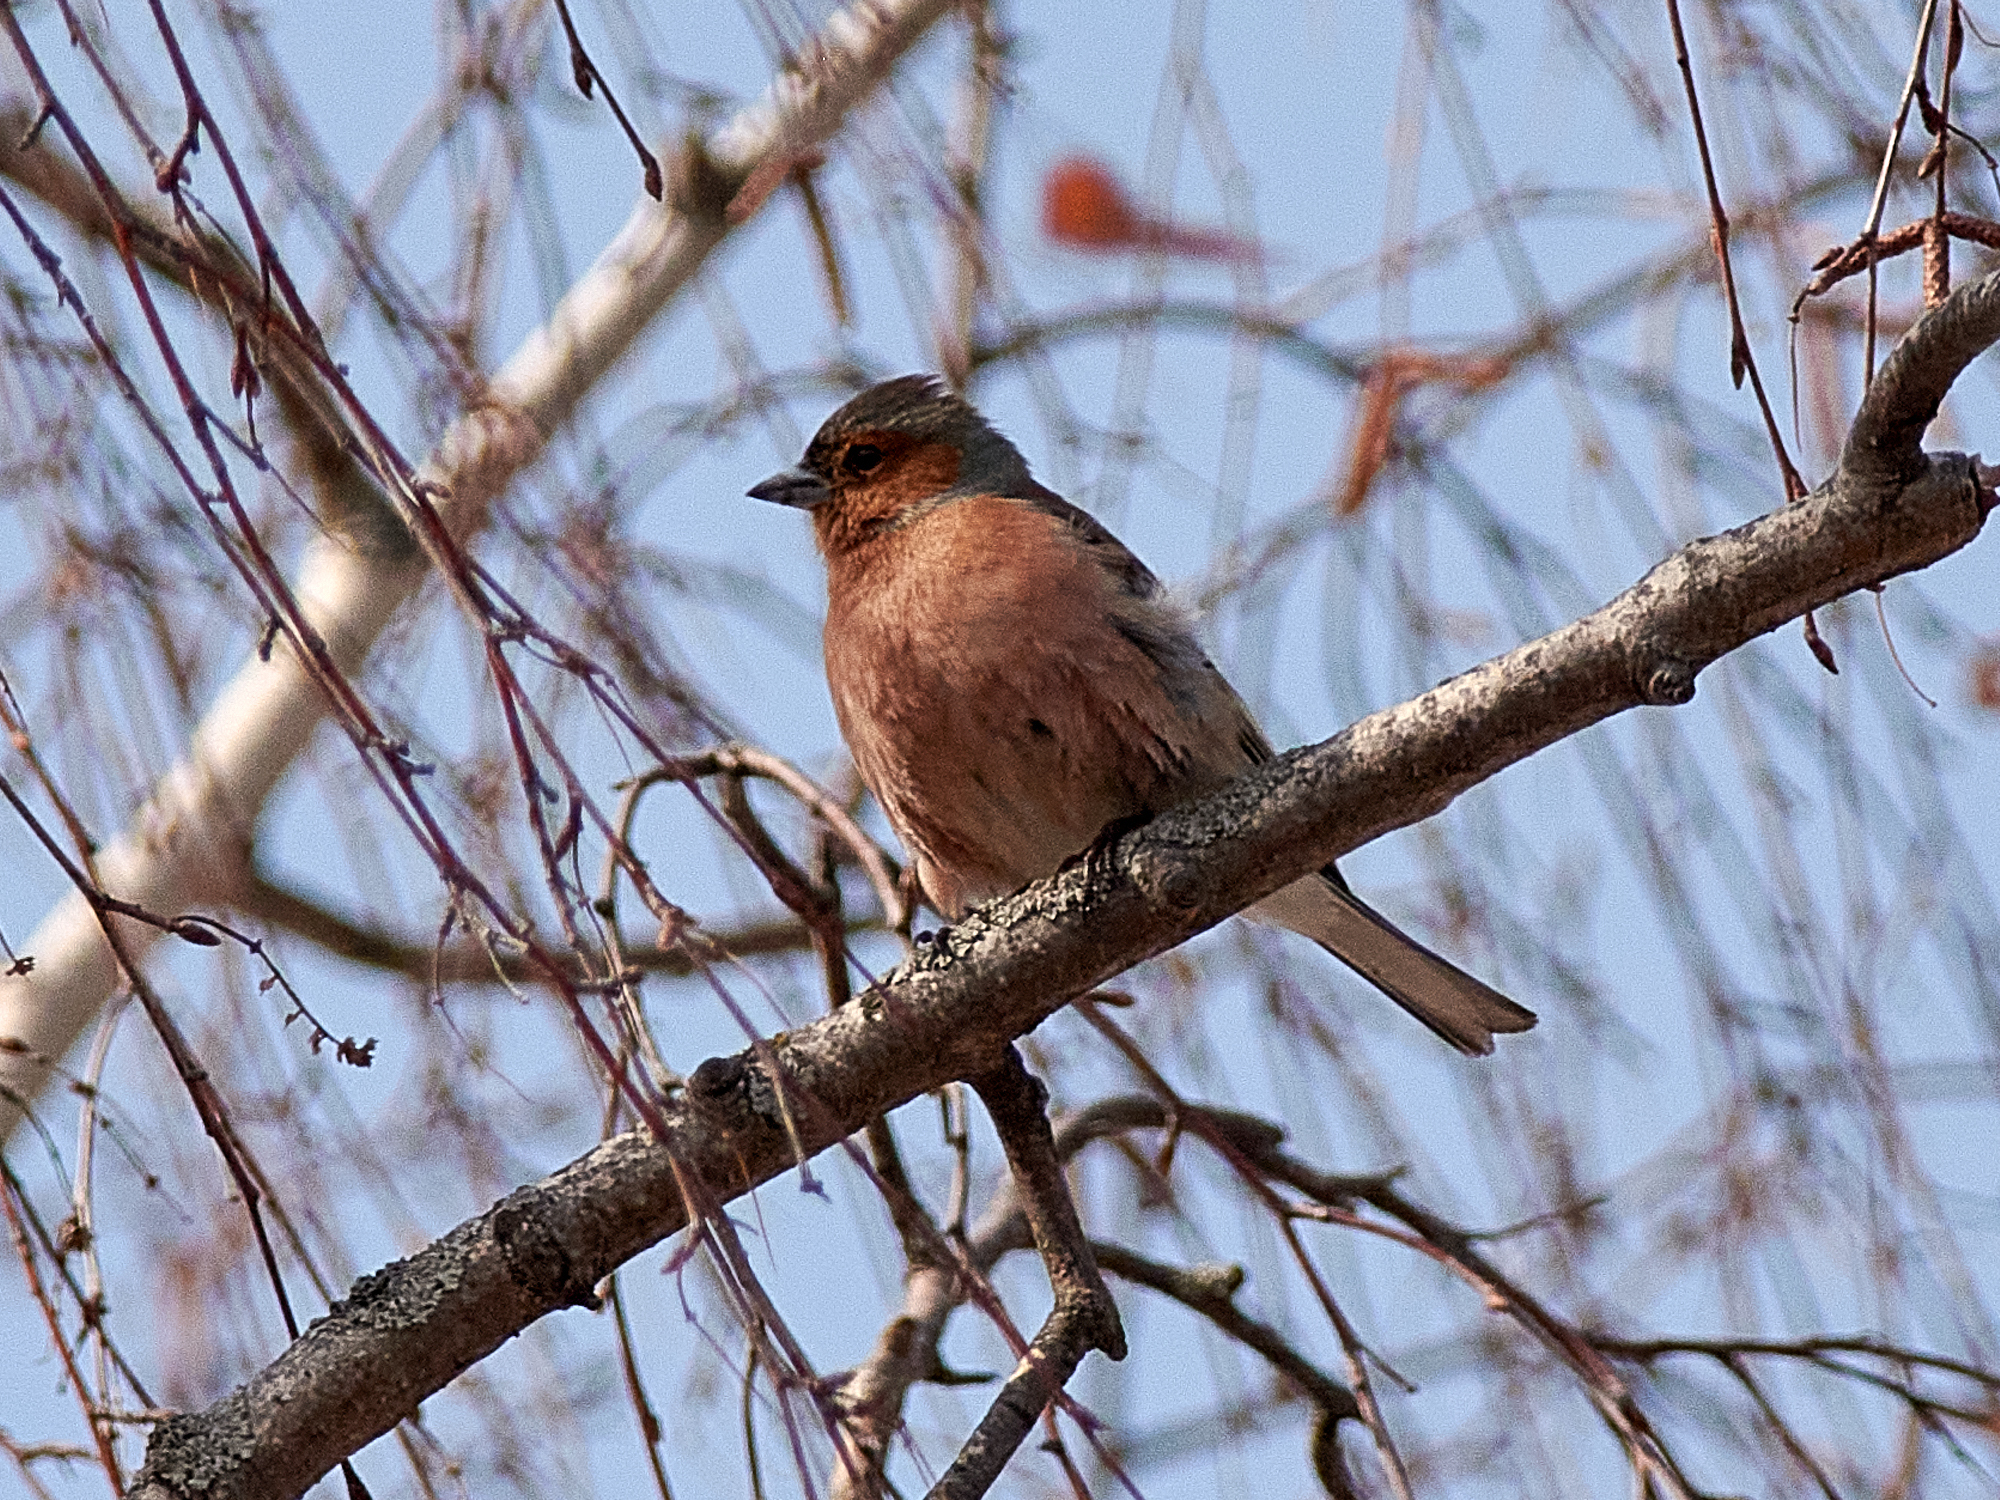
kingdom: Animalia
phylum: Chordata
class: Aves
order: Passeriformes
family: Fringillidae
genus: Fringilla
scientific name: Fringilla coelebs
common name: Common chaffinch
